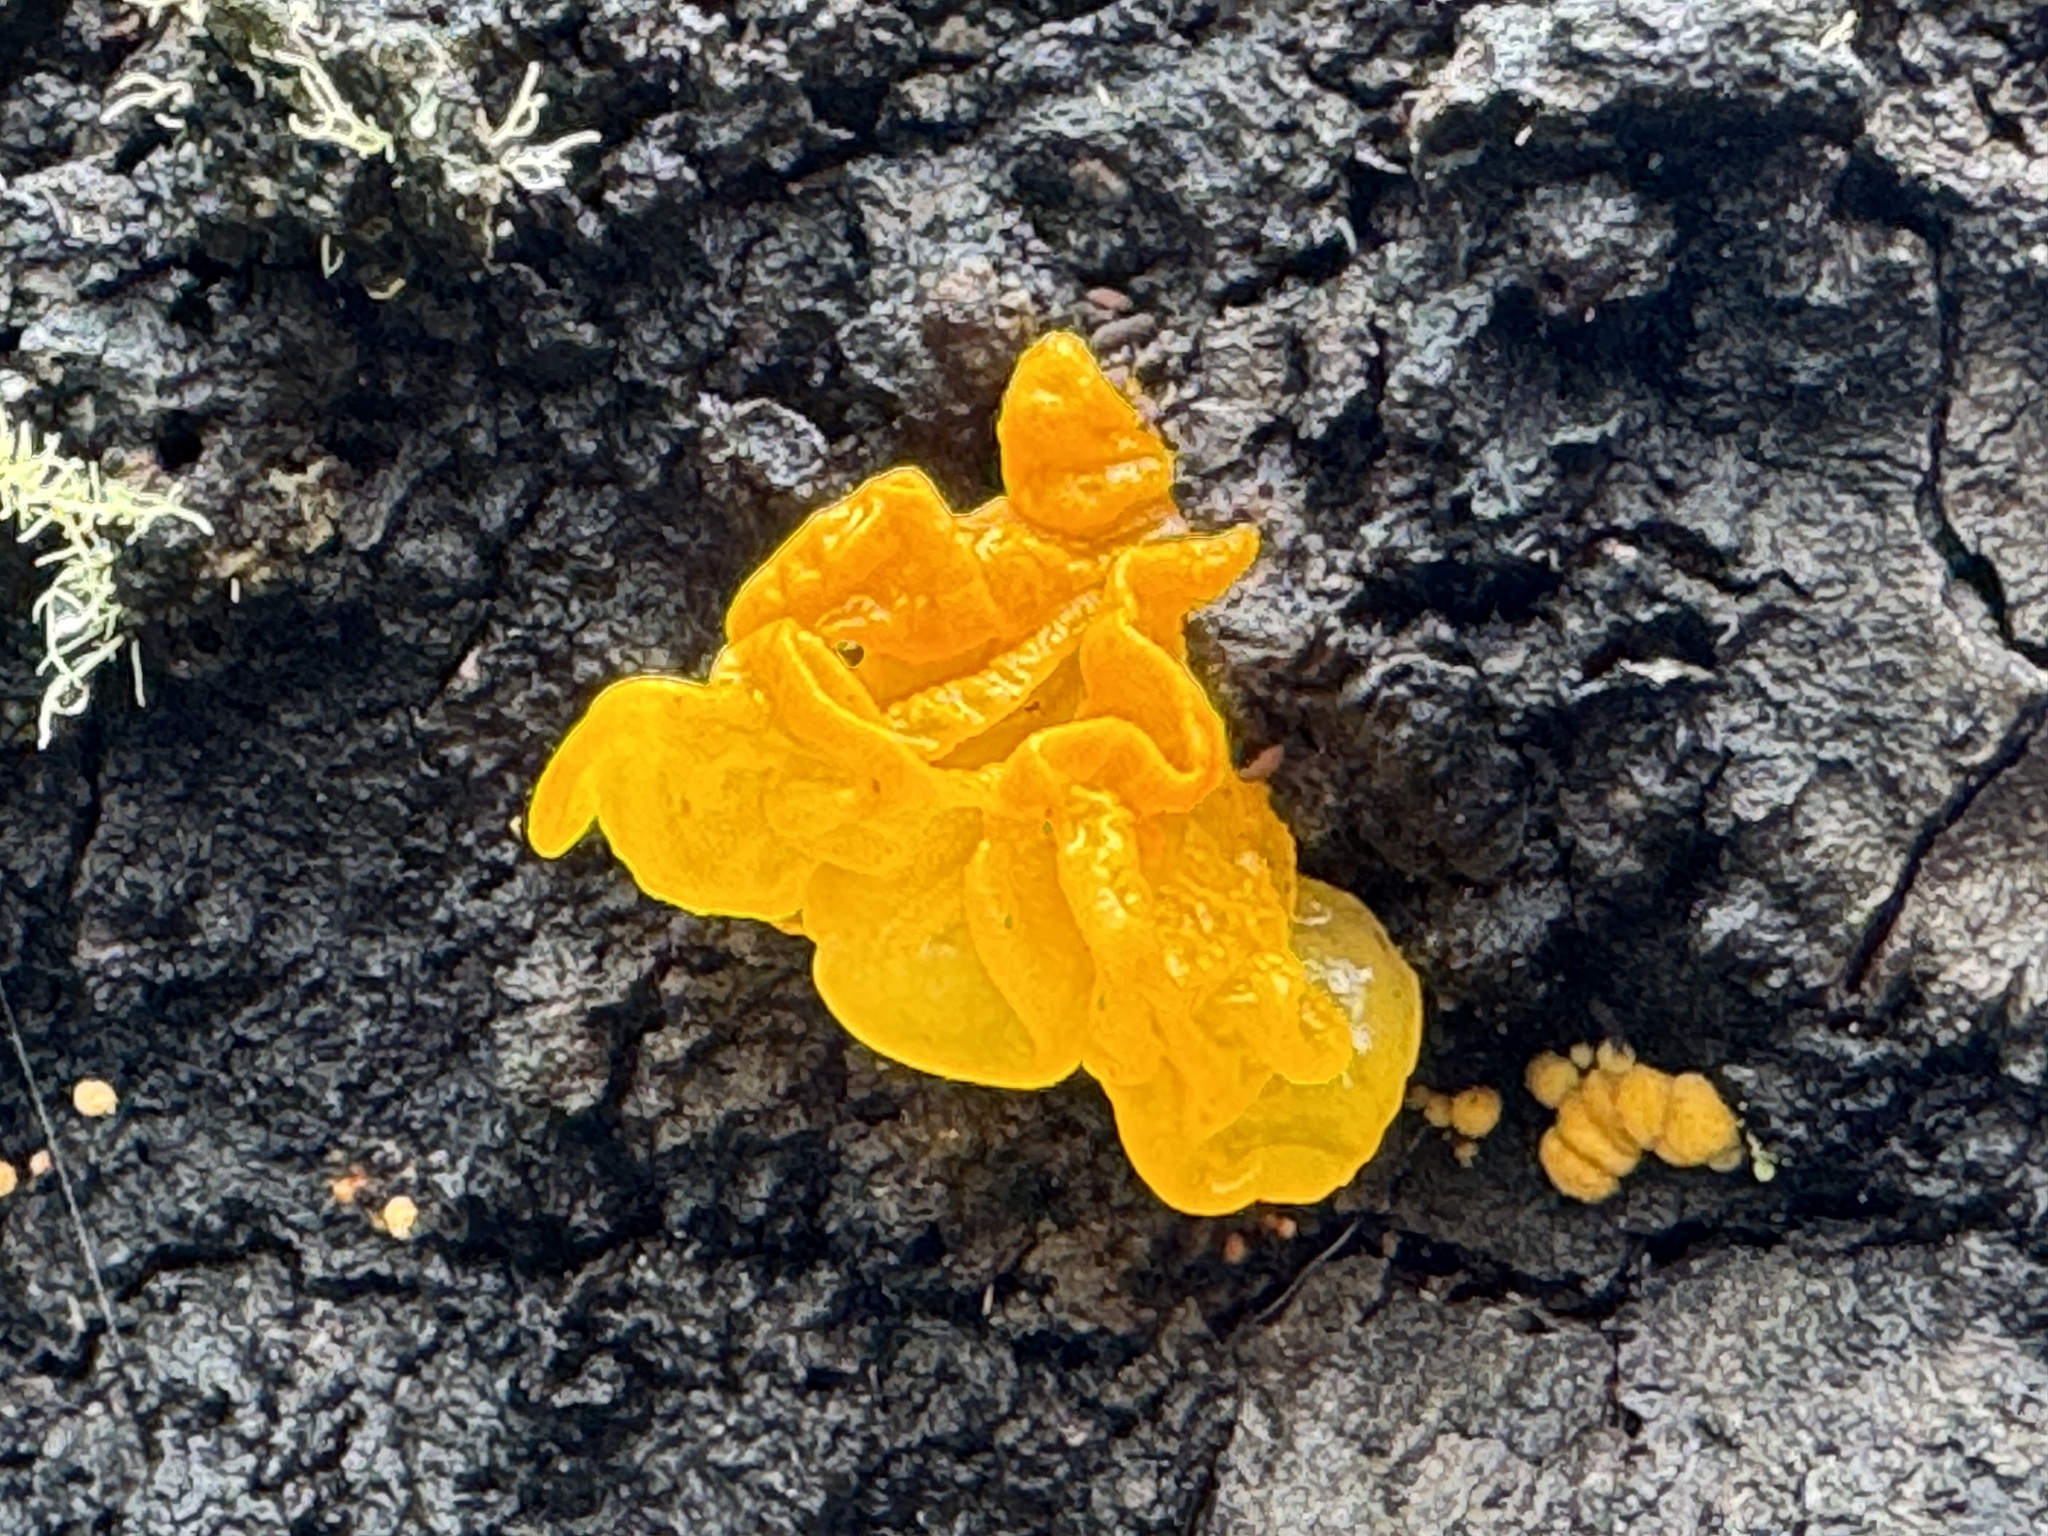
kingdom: Fungi
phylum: Basidiomycota
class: Tremellomycetes
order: Tremellales
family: Tremellaceae
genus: Tremella
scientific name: Tremella mesenterella
